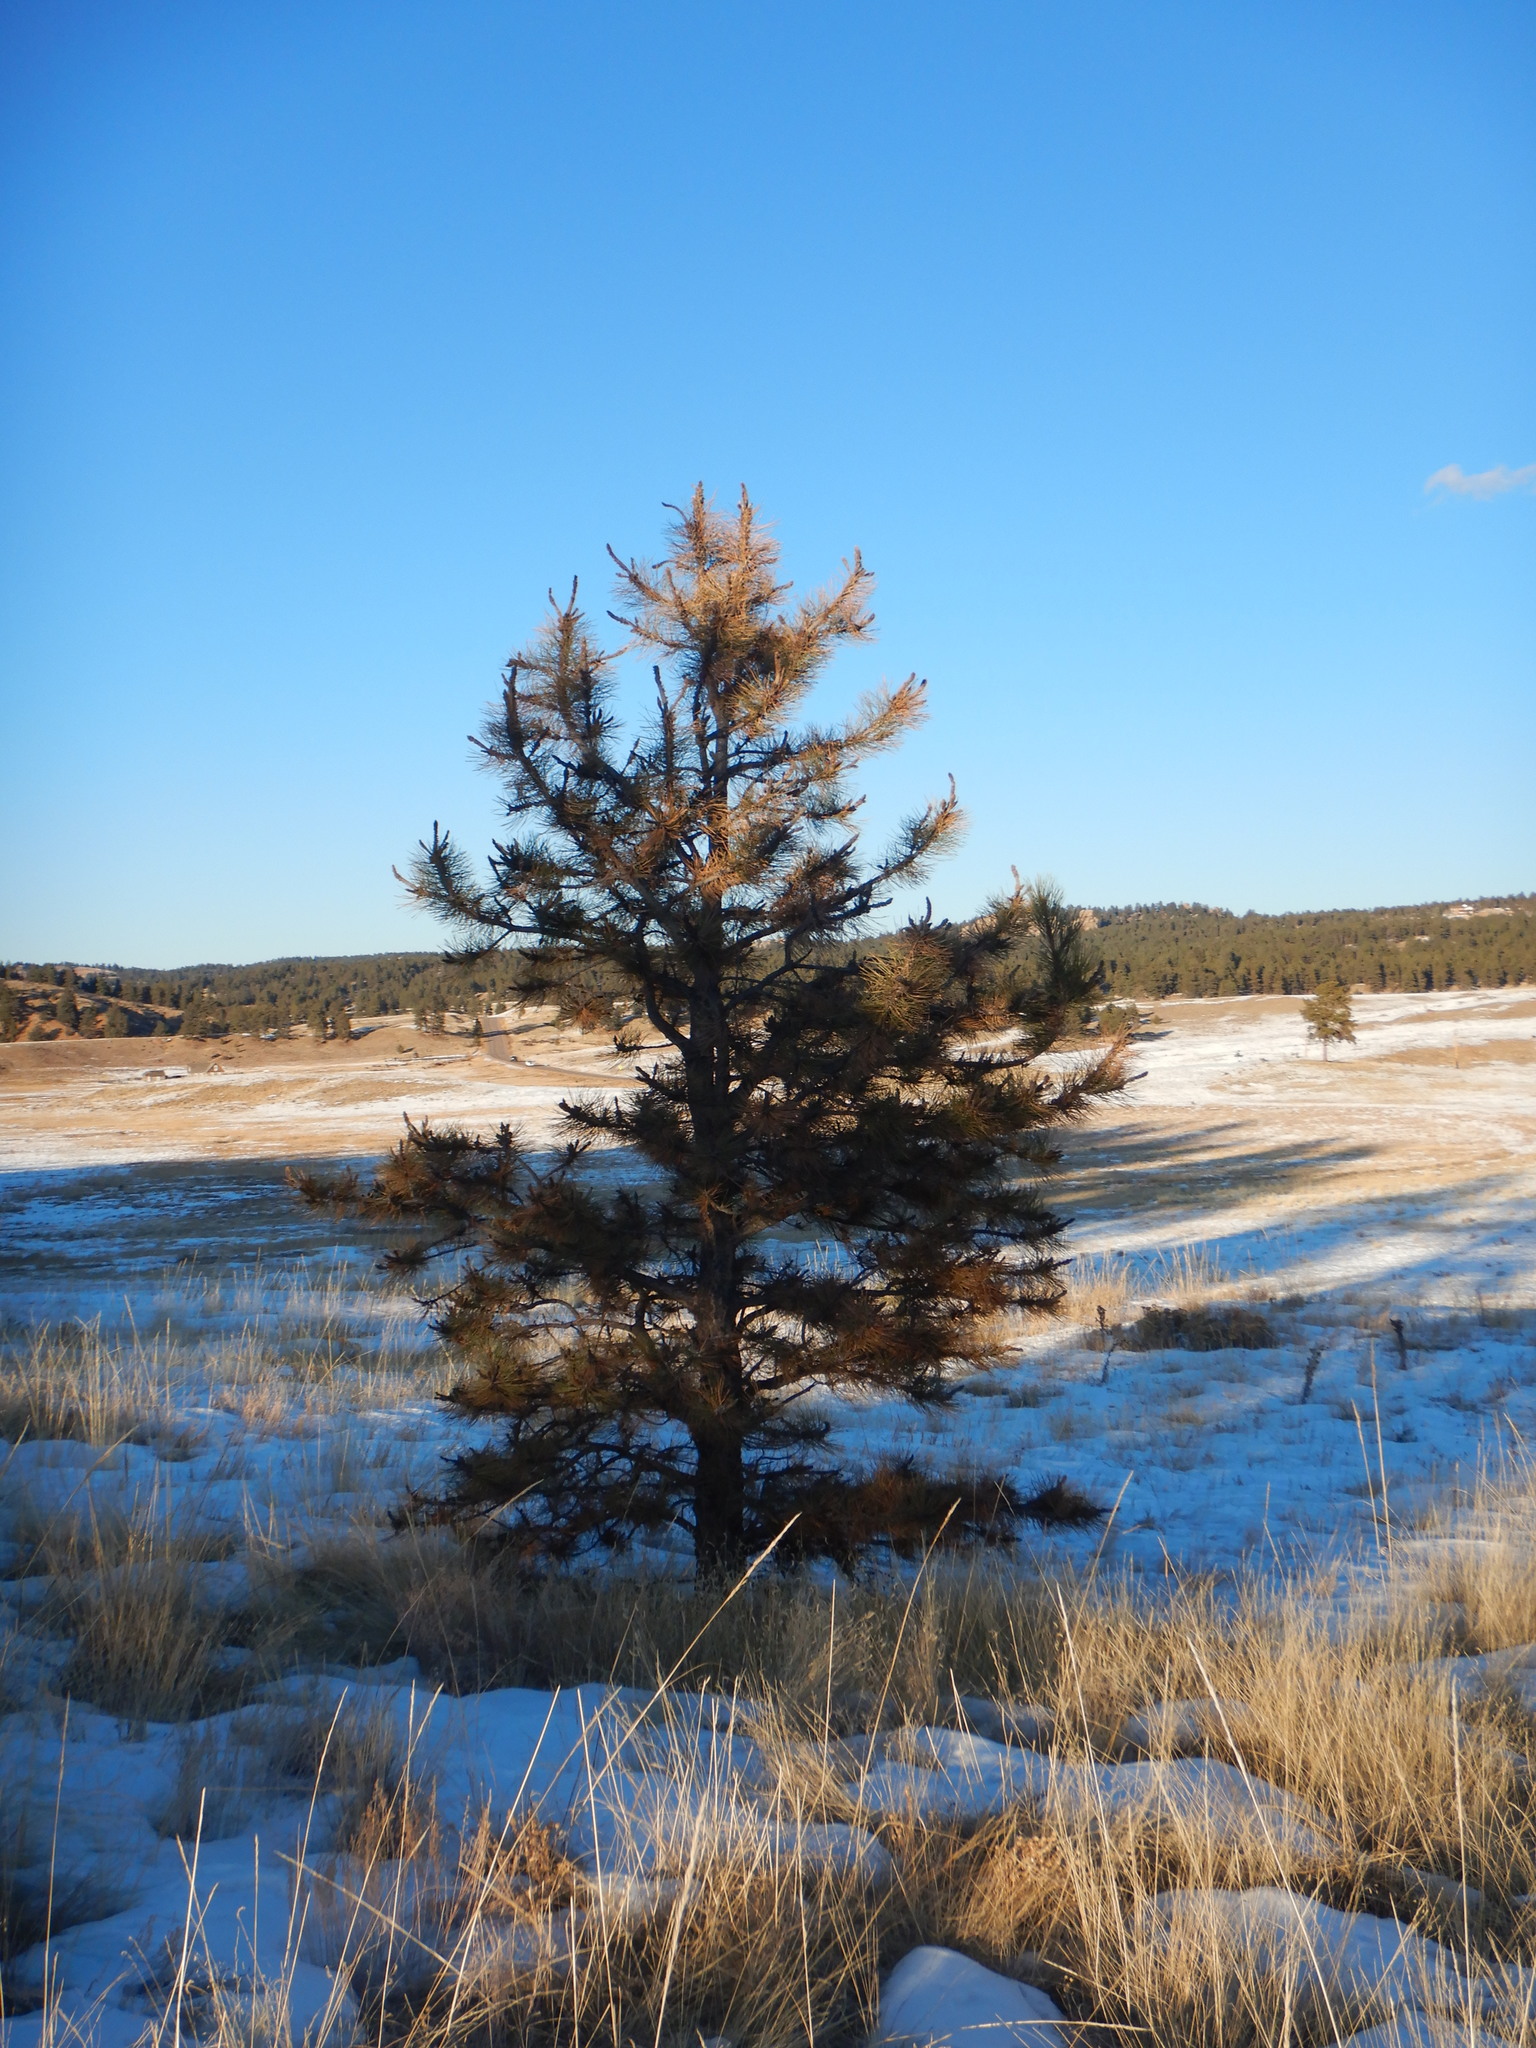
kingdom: Plantae
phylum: Tracheophyta
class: Pinopsida
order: Pinales
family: Pinaceae
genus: Pinus
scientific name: Pinus ponderosa
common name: Western yellow-pine
